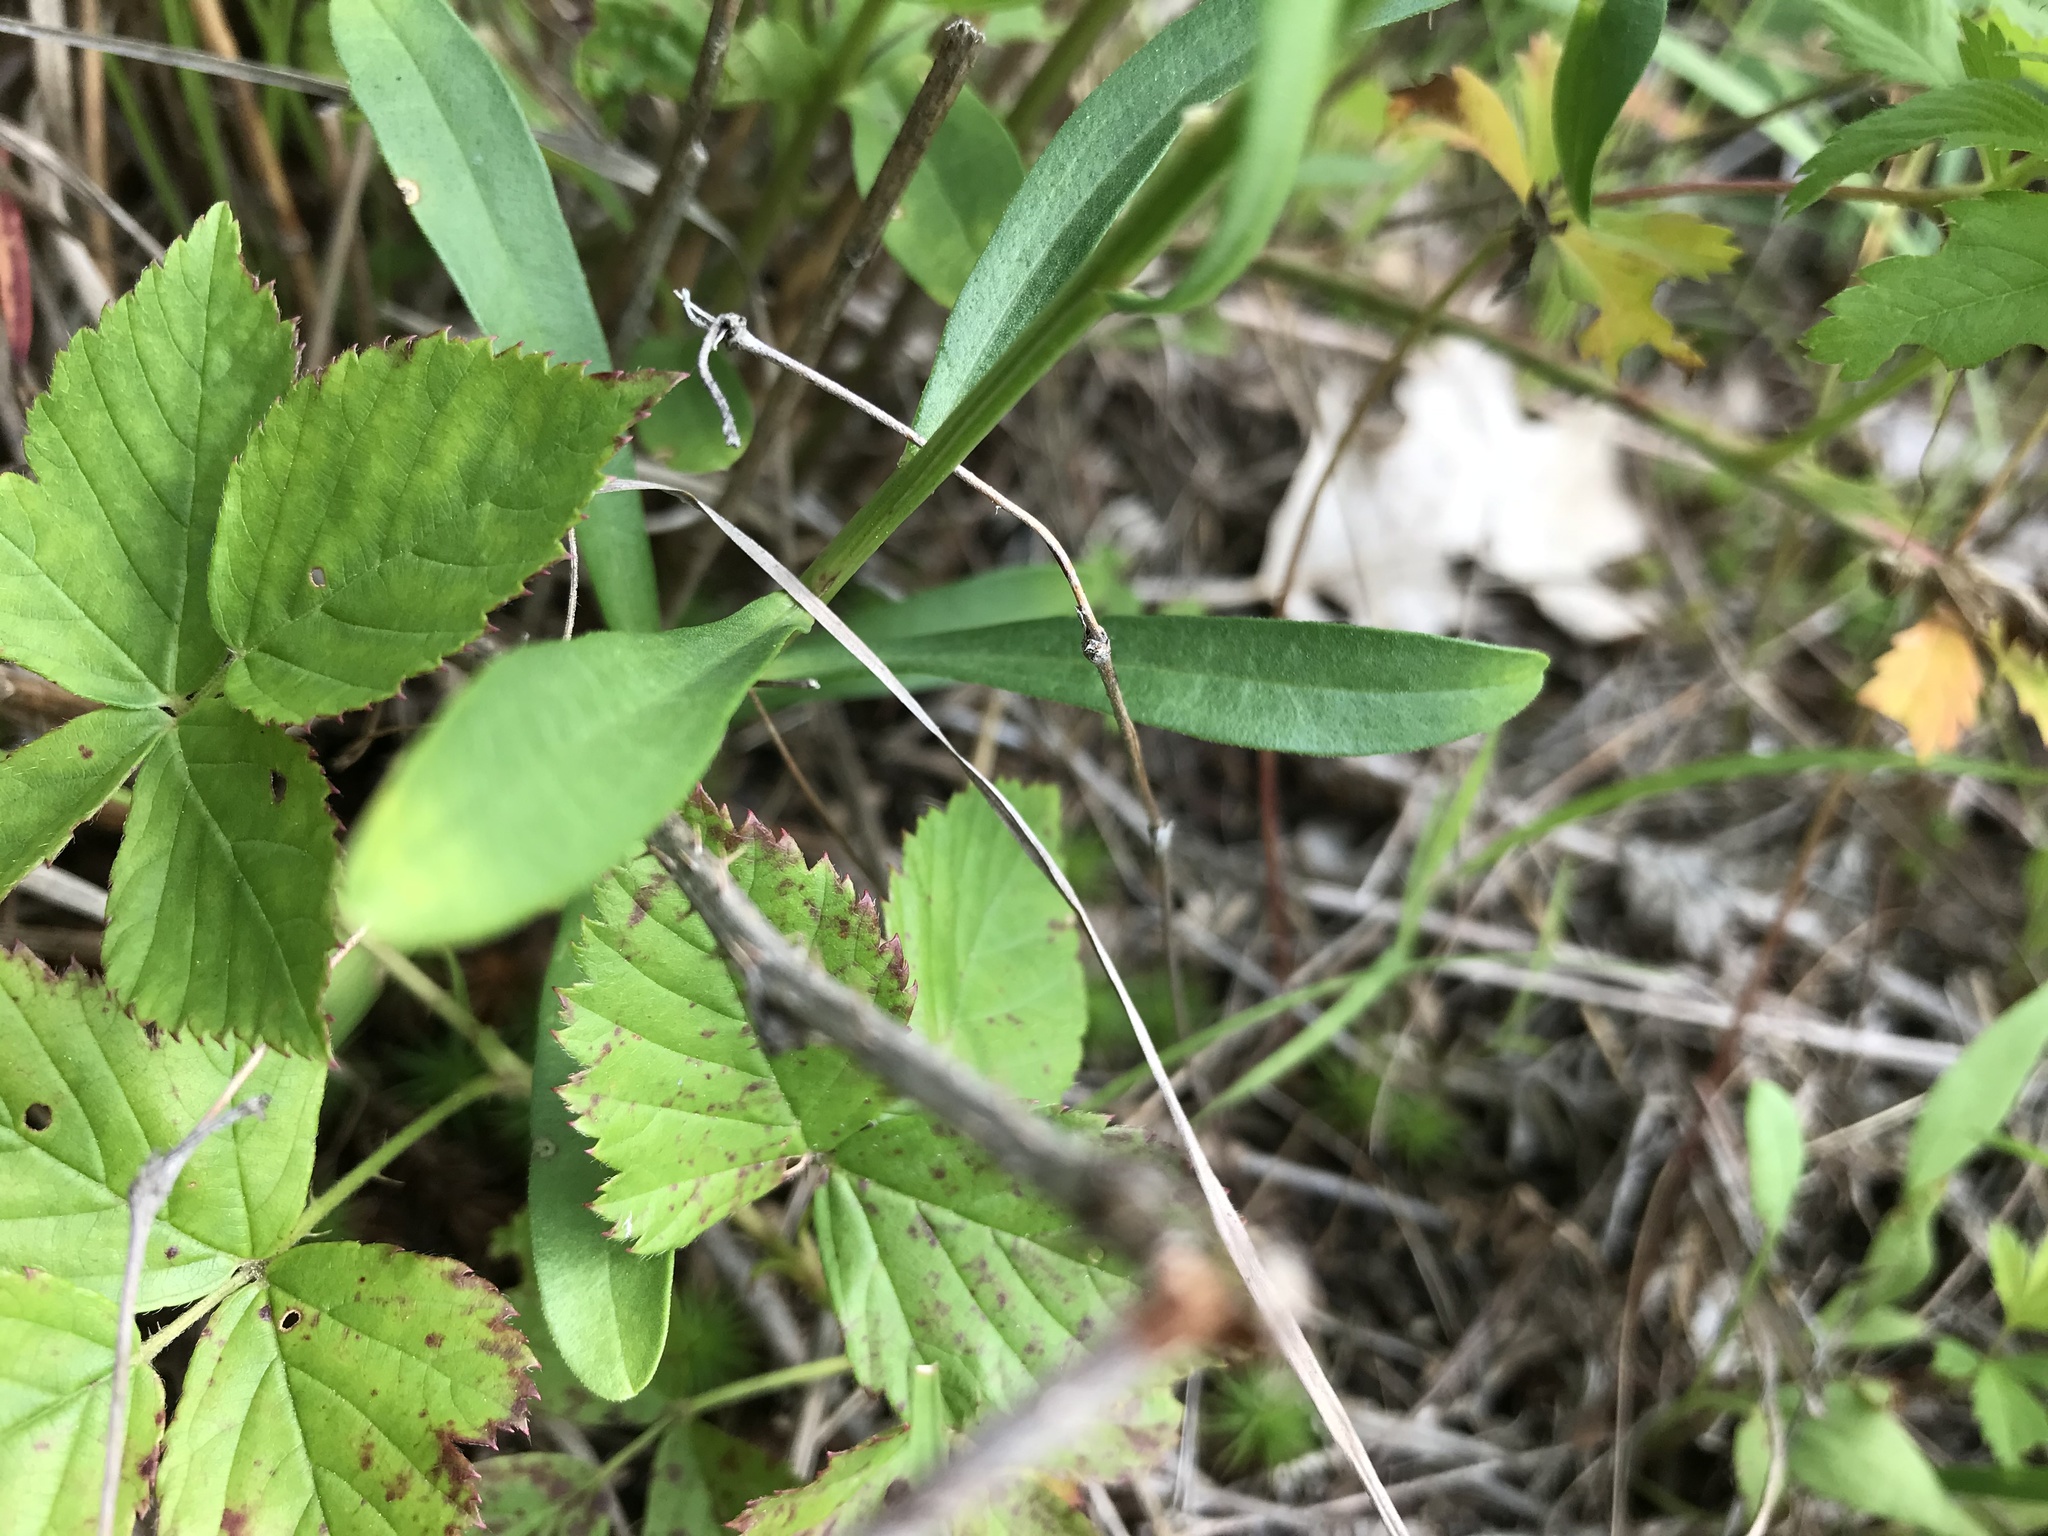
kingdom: Plantae
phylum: Tracheophyta
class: Magnoliopsida
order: Asterales
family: Asteraceae
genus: Sericocarpus
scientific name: Sericocarpus linifolius
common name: Narrow-leaf aster
